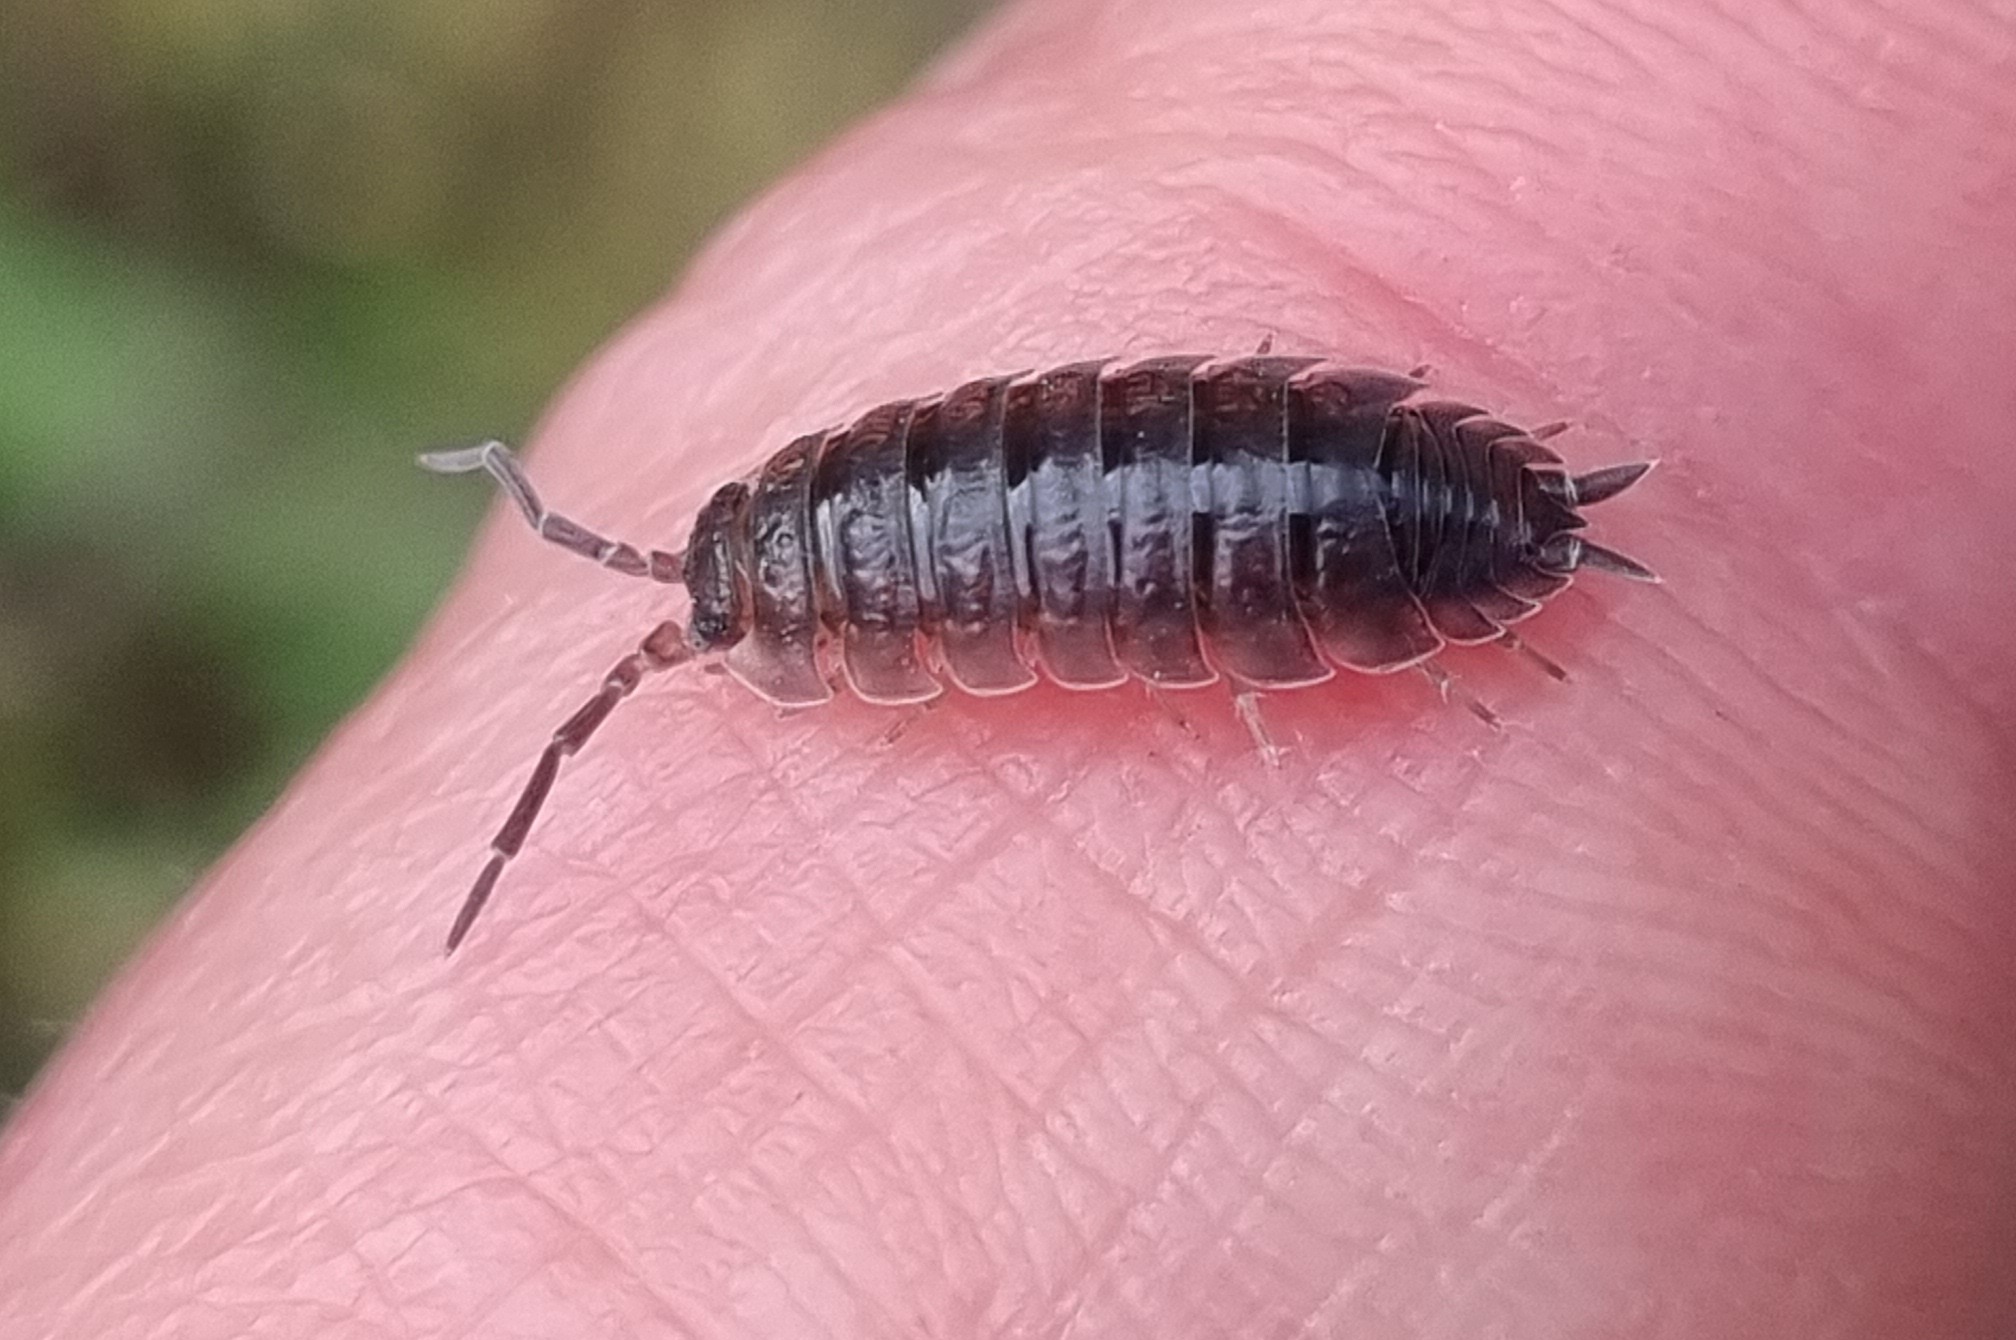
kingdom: Animalia
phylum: Arthropoda
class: Malacostraca
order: Isopoda
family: Porcellionidae
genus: Porcellio
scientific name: Porcellio scaber
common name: Common rough woodlouse
